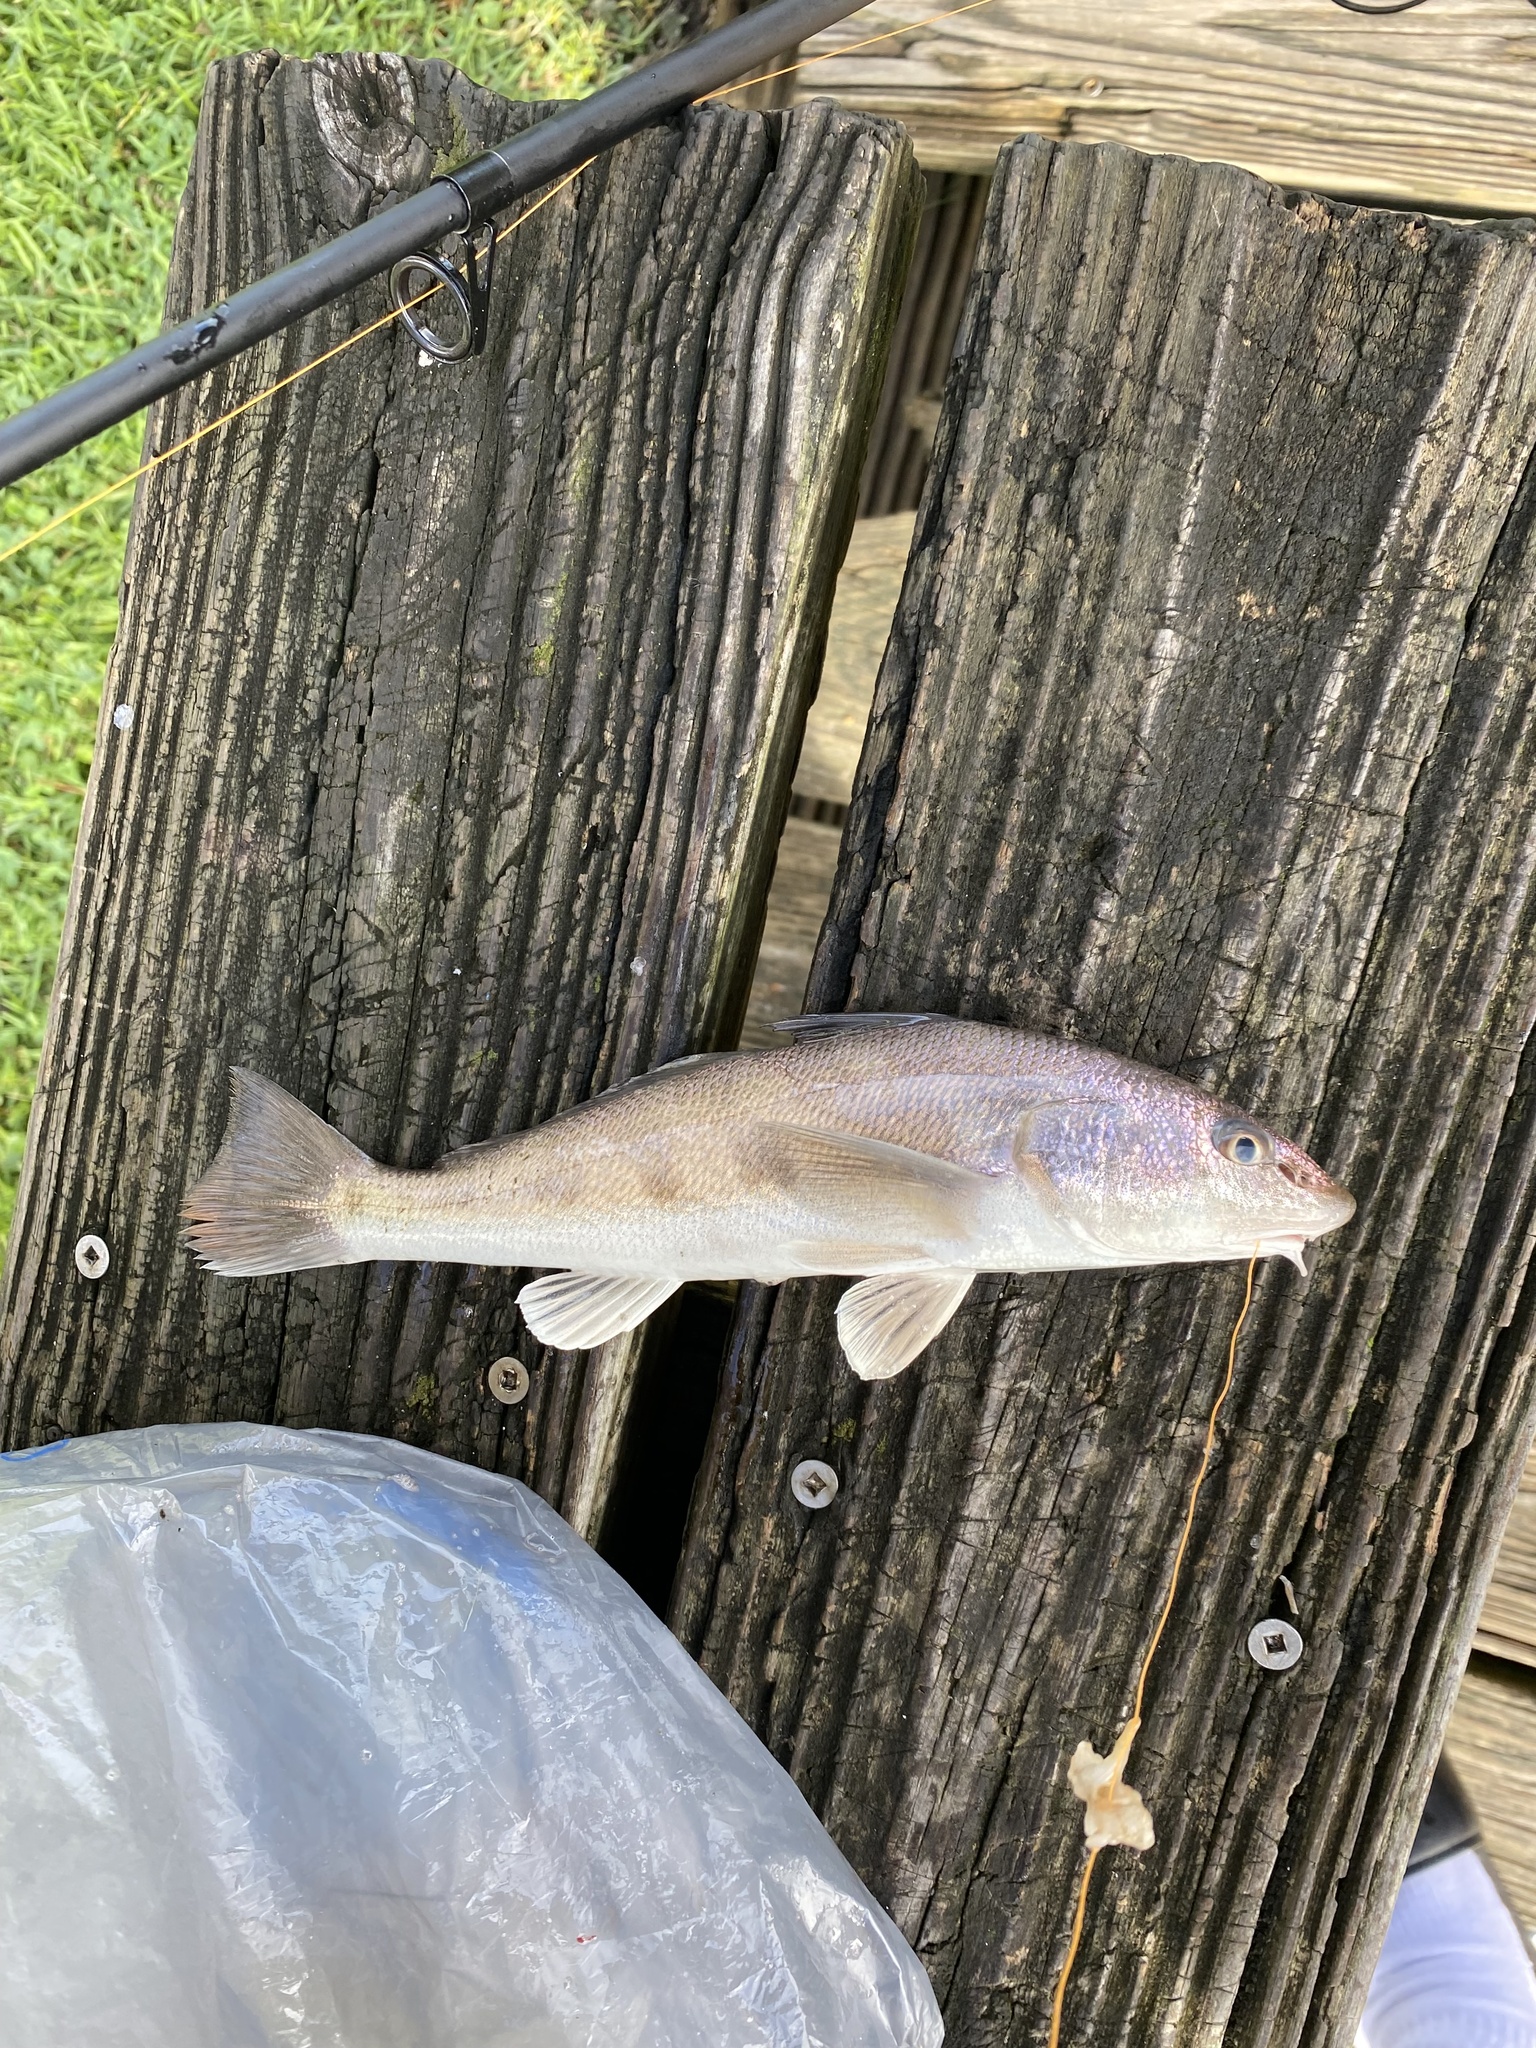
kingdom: Animalia
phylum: Chordata
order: Perciformes
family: Sciaenidae
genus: Menticirrhus
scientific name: Menticirrhus americanus
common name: Southern kingfish
